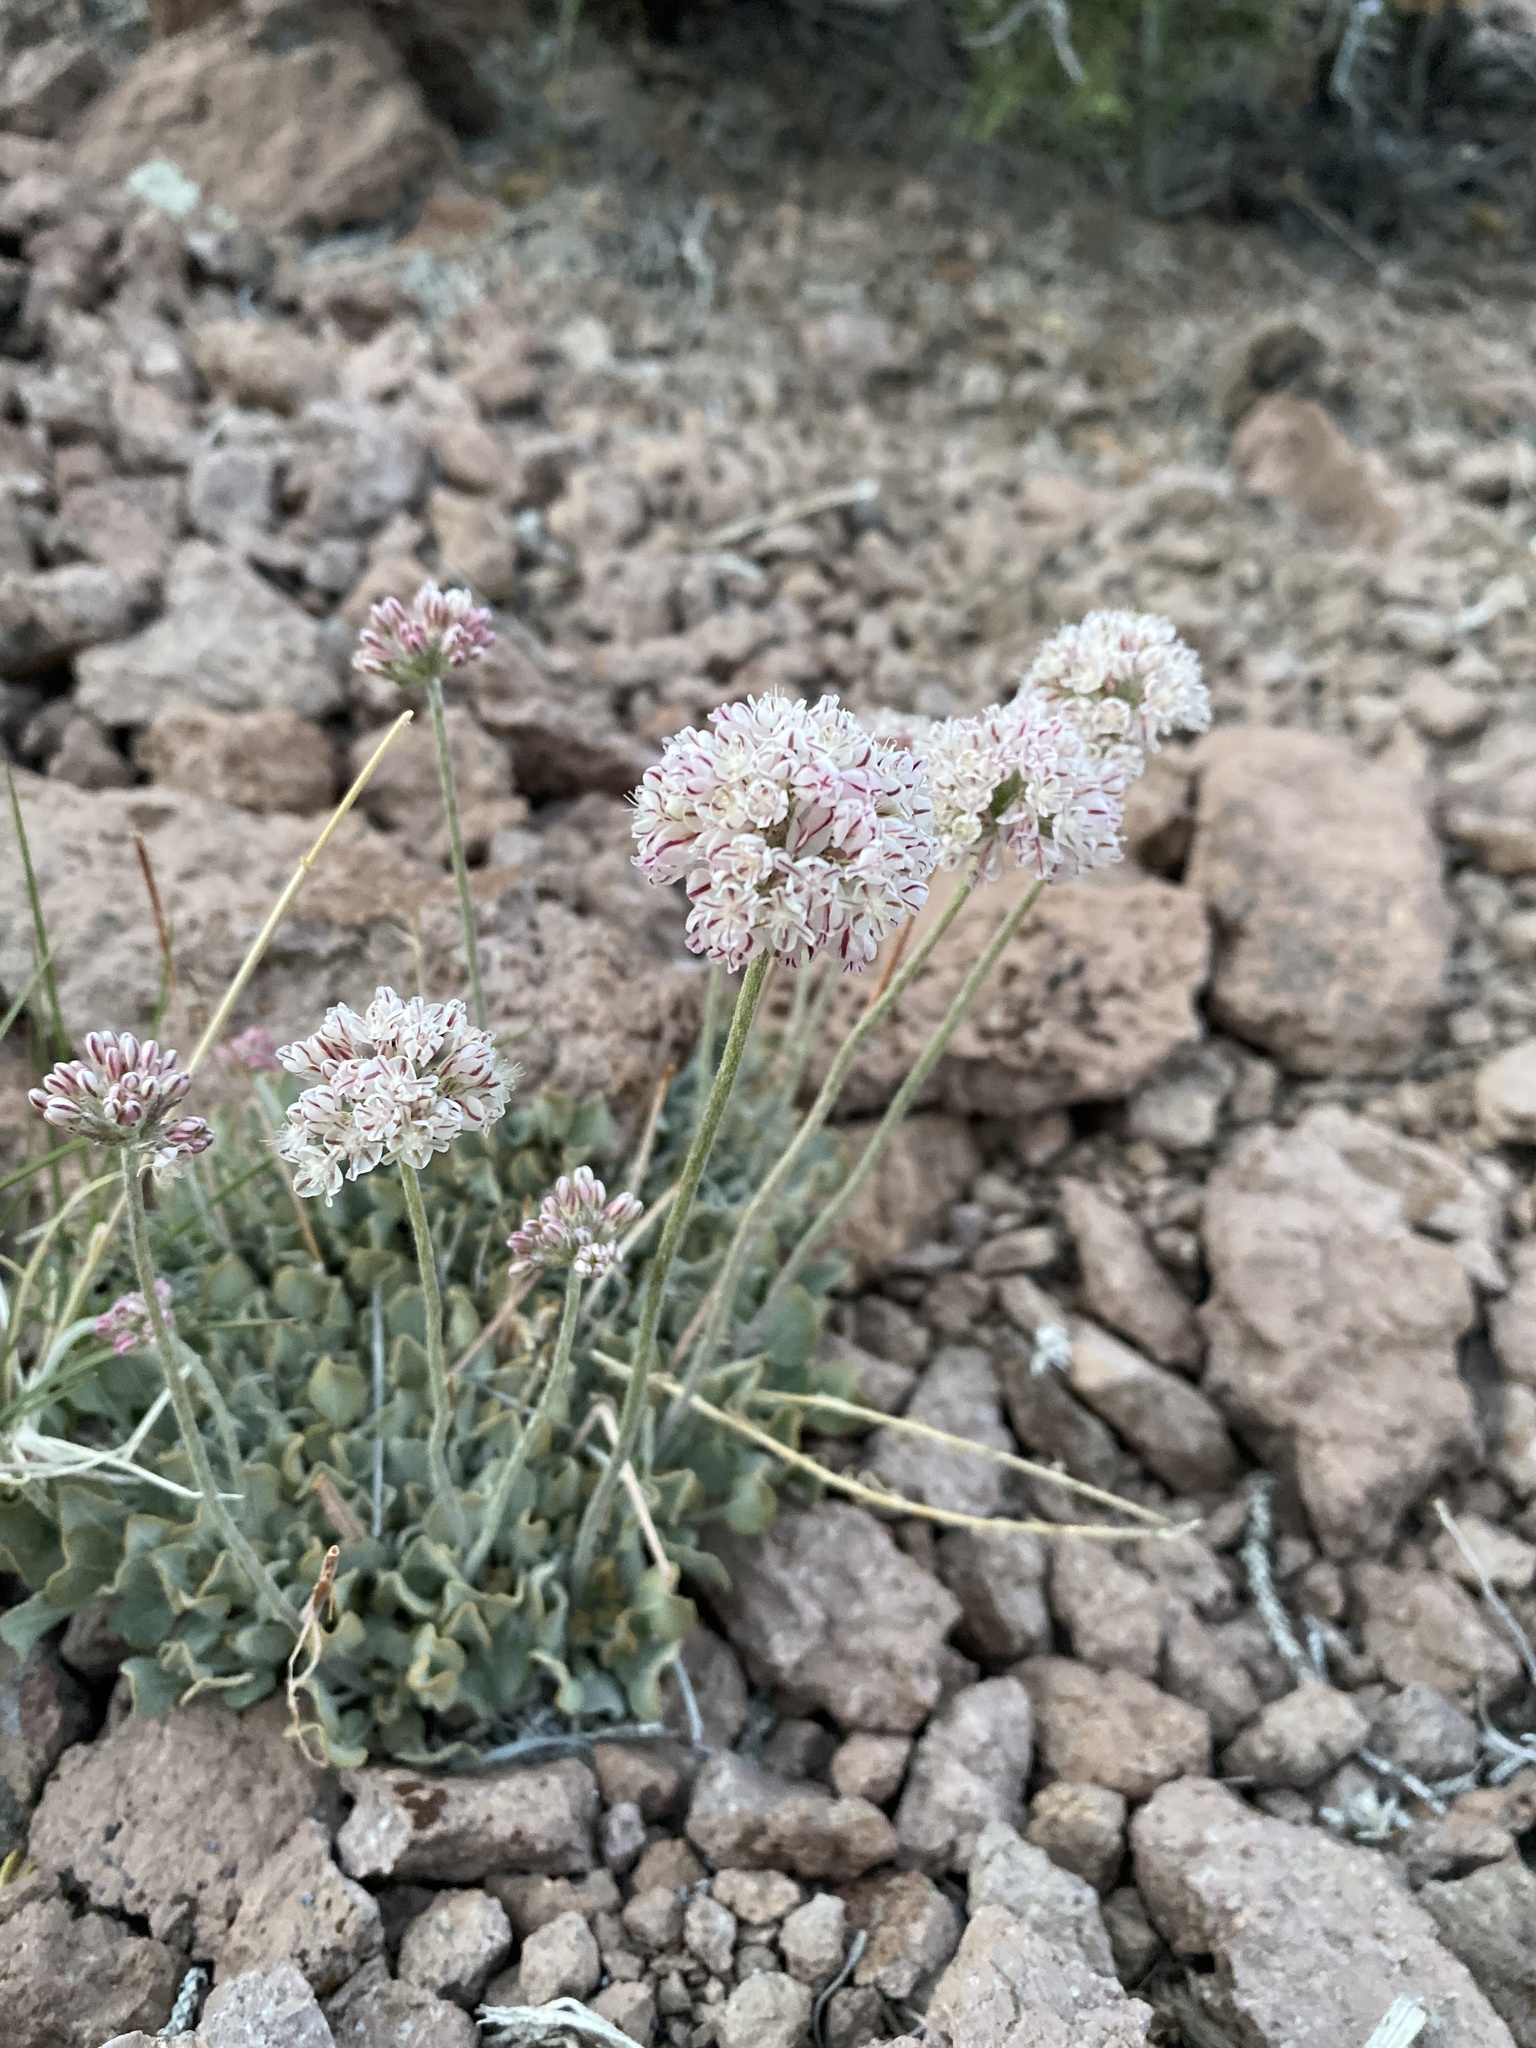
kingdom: Plantae
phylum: Tracheophyta
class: Magnoliopsida
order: Caryophyllales
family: Polygonaceae
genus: Eriogonum
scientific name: Eriogonum ovalifolium
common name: Cushion buckwheat
